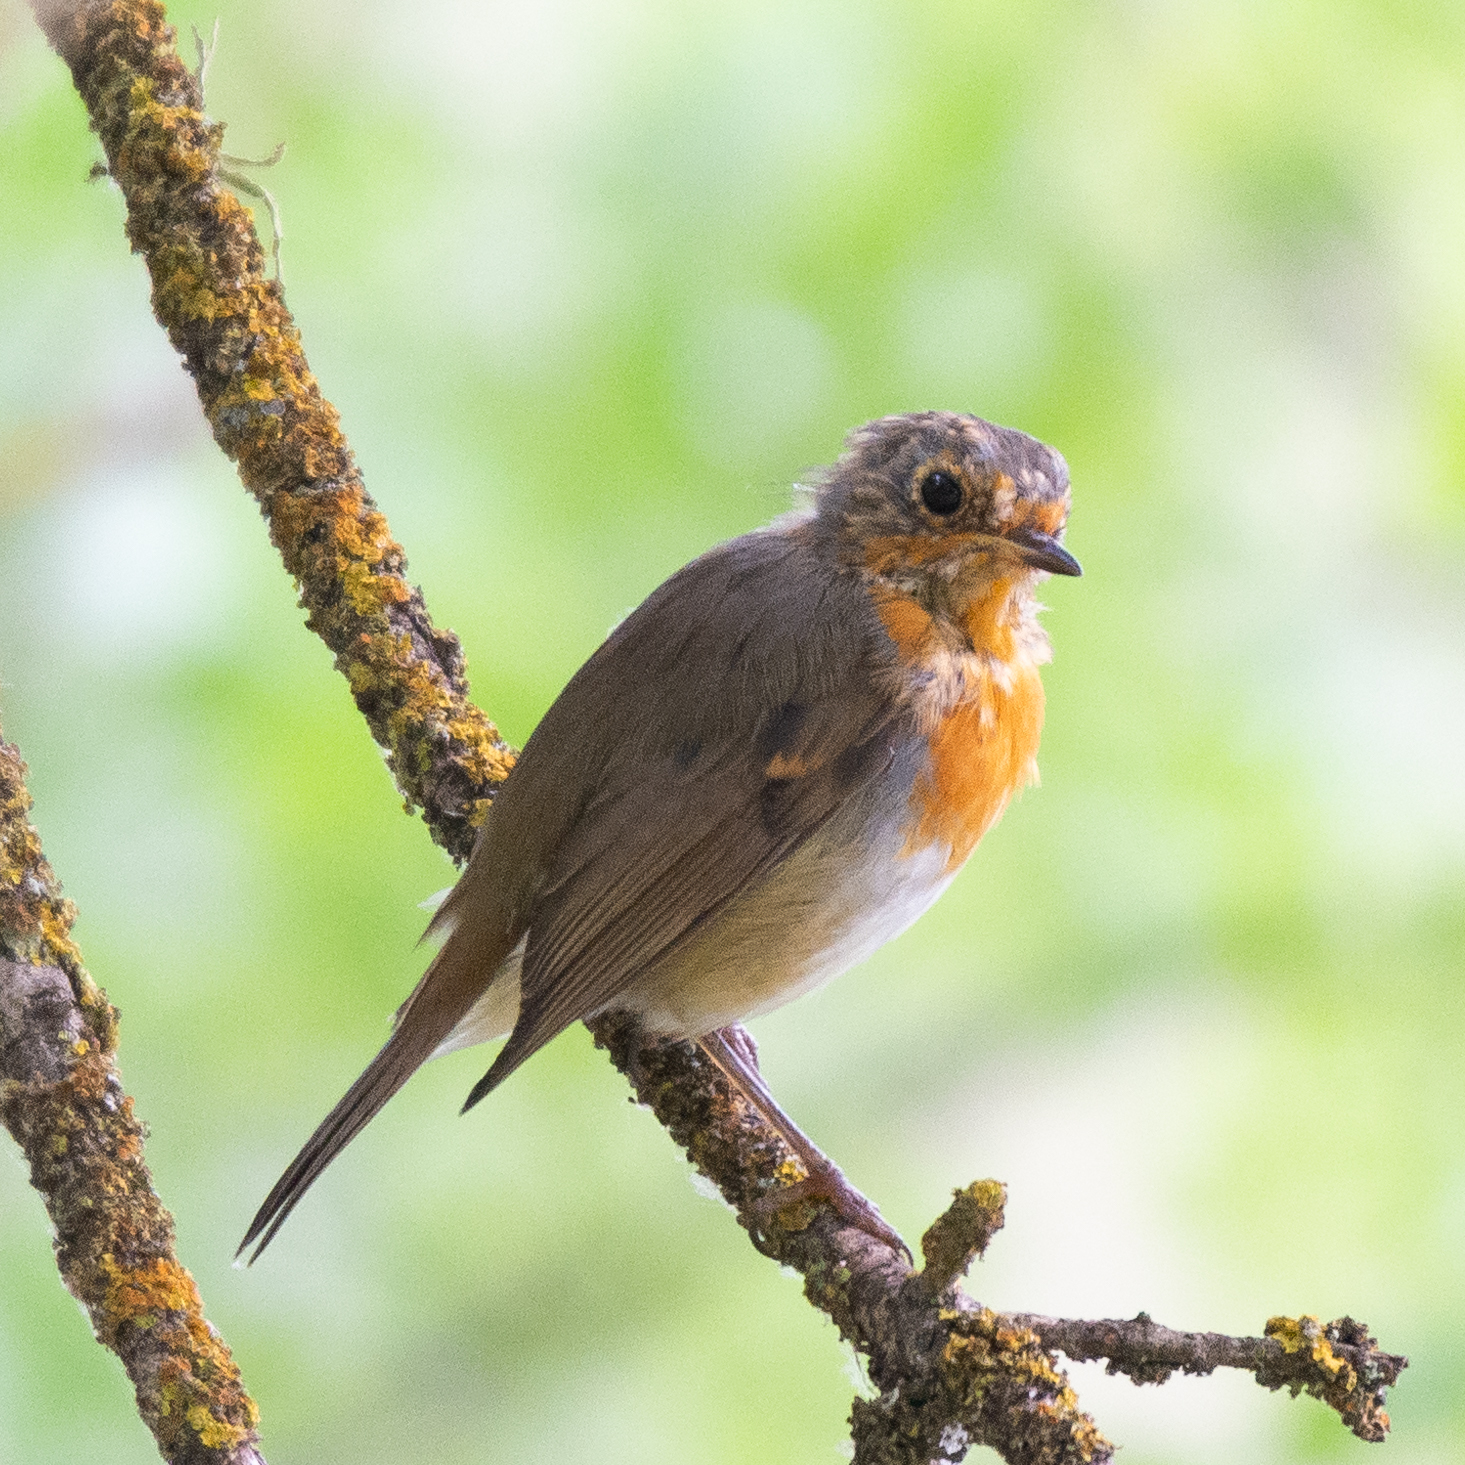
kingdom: Animalia
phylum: Chordata
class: Aves
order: Passeriformes
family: Muscicapidae
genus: Erithacus
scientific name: Erithacus rubecula
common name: European robin
